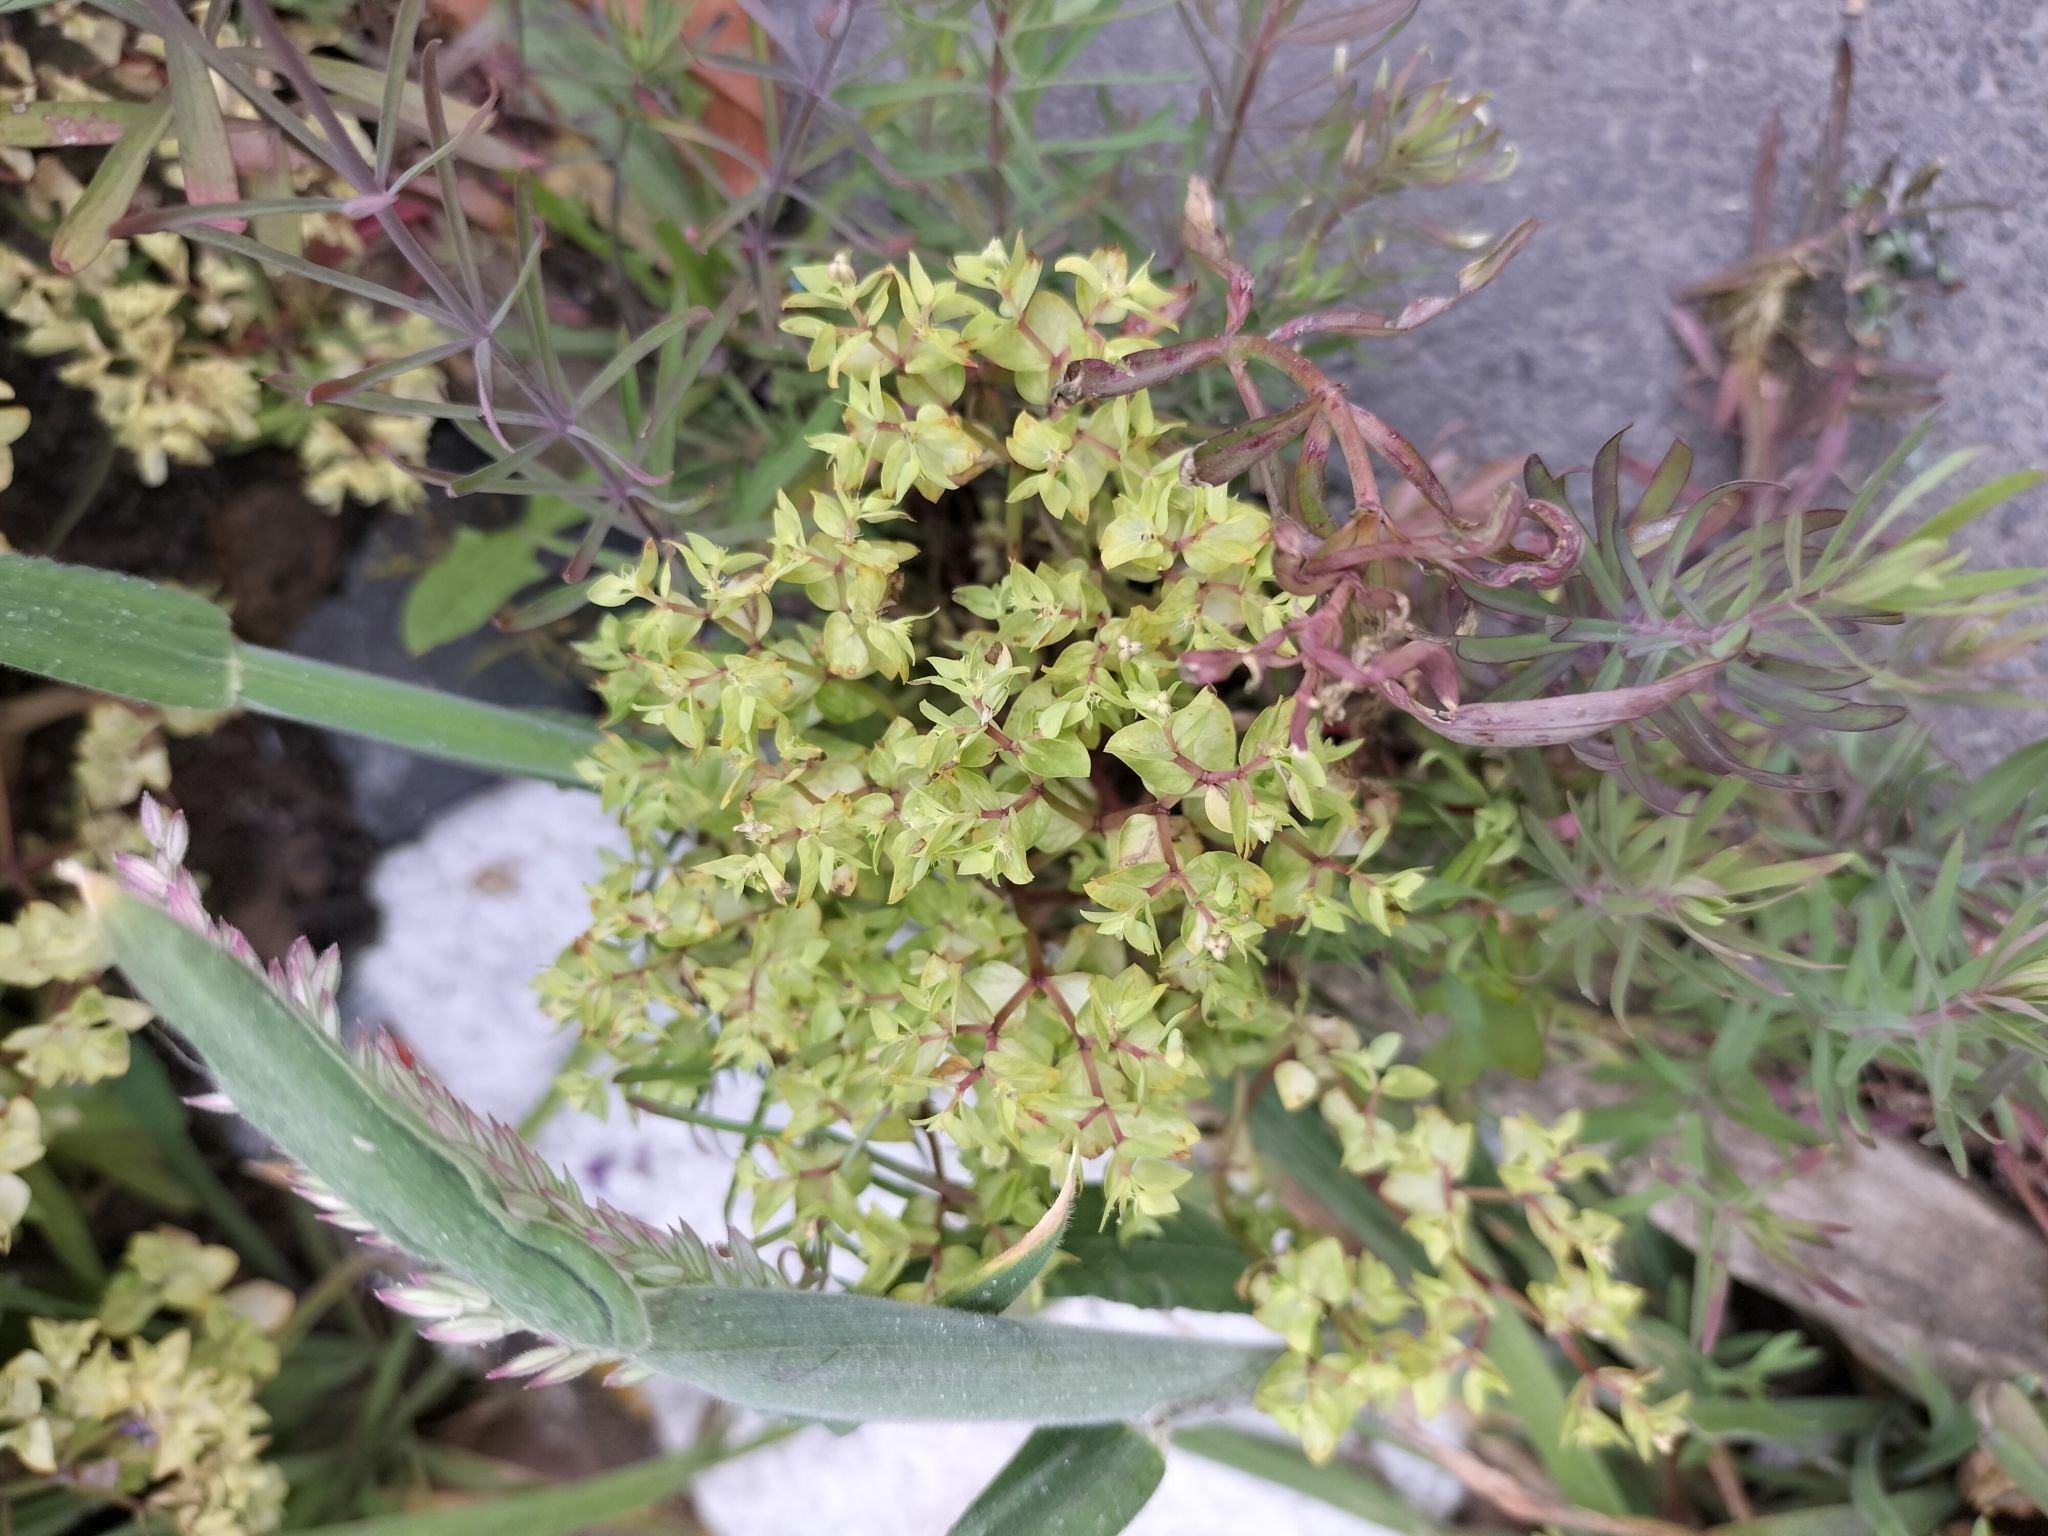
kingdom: Plantae
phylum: Tracheophyta
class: Magnoliopsida
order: Malpighiales
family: Euphorbiaceae
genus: Euphorbia
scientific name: Euphorbia peplus
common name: Petty spurge
